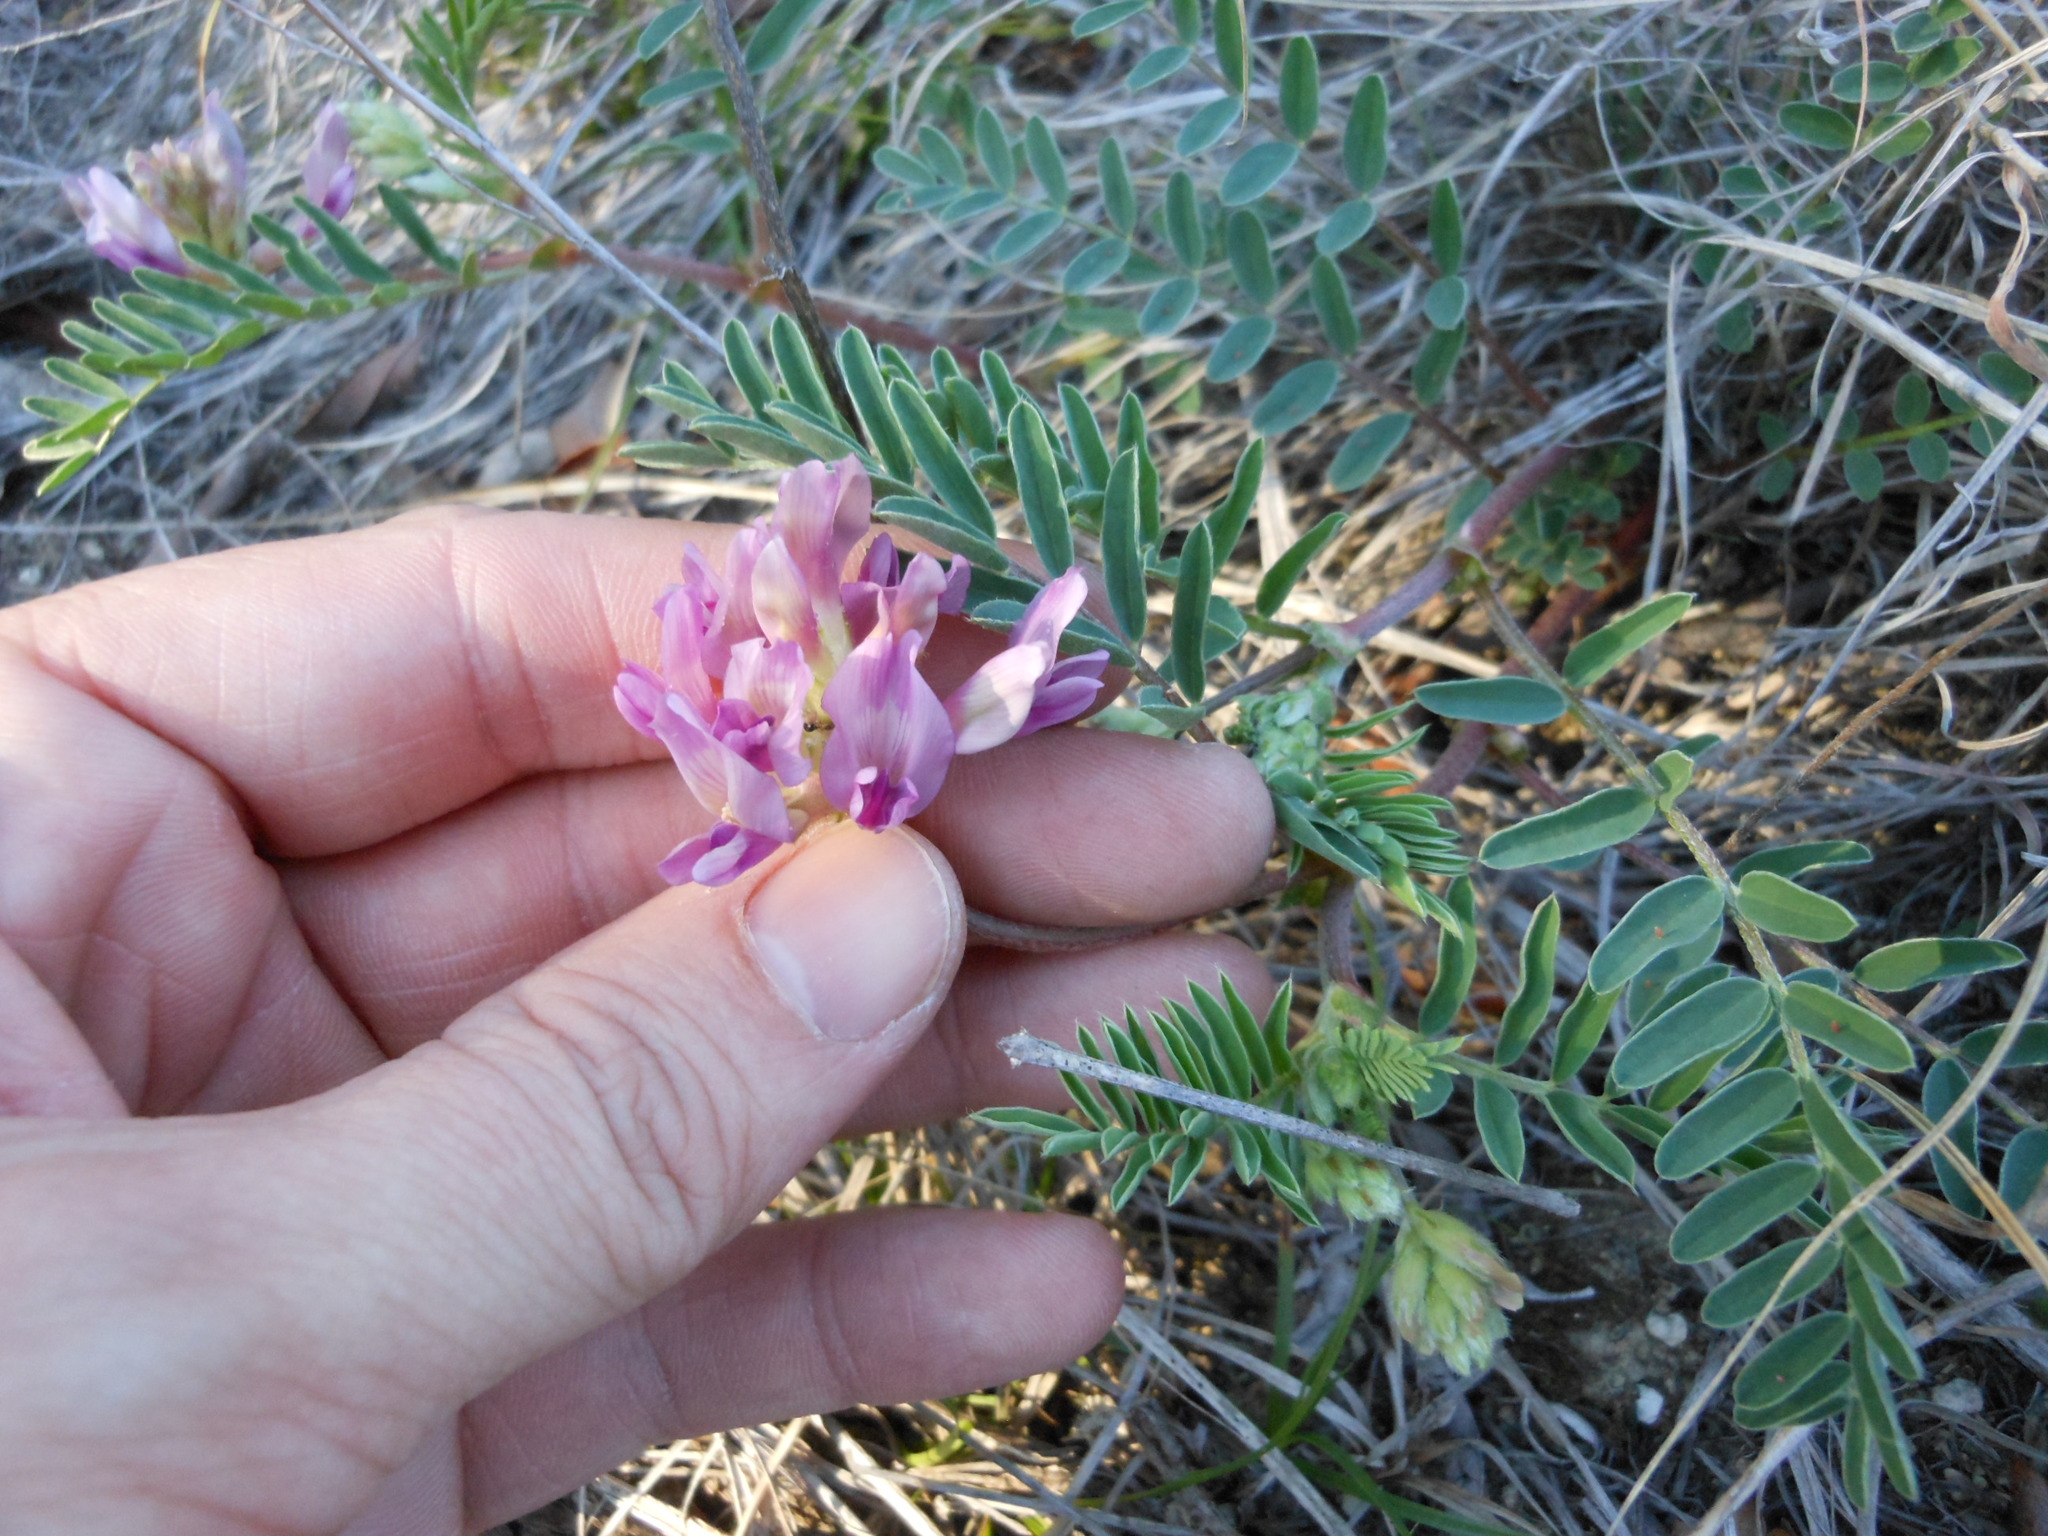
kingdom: Plantae
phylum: Tracheophyta
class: Magnoliopsida
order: Fabales
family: Fabaceae
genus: Astragalus
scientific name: Astragalus crassicarpus
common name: Ground-plum milk-vetch
